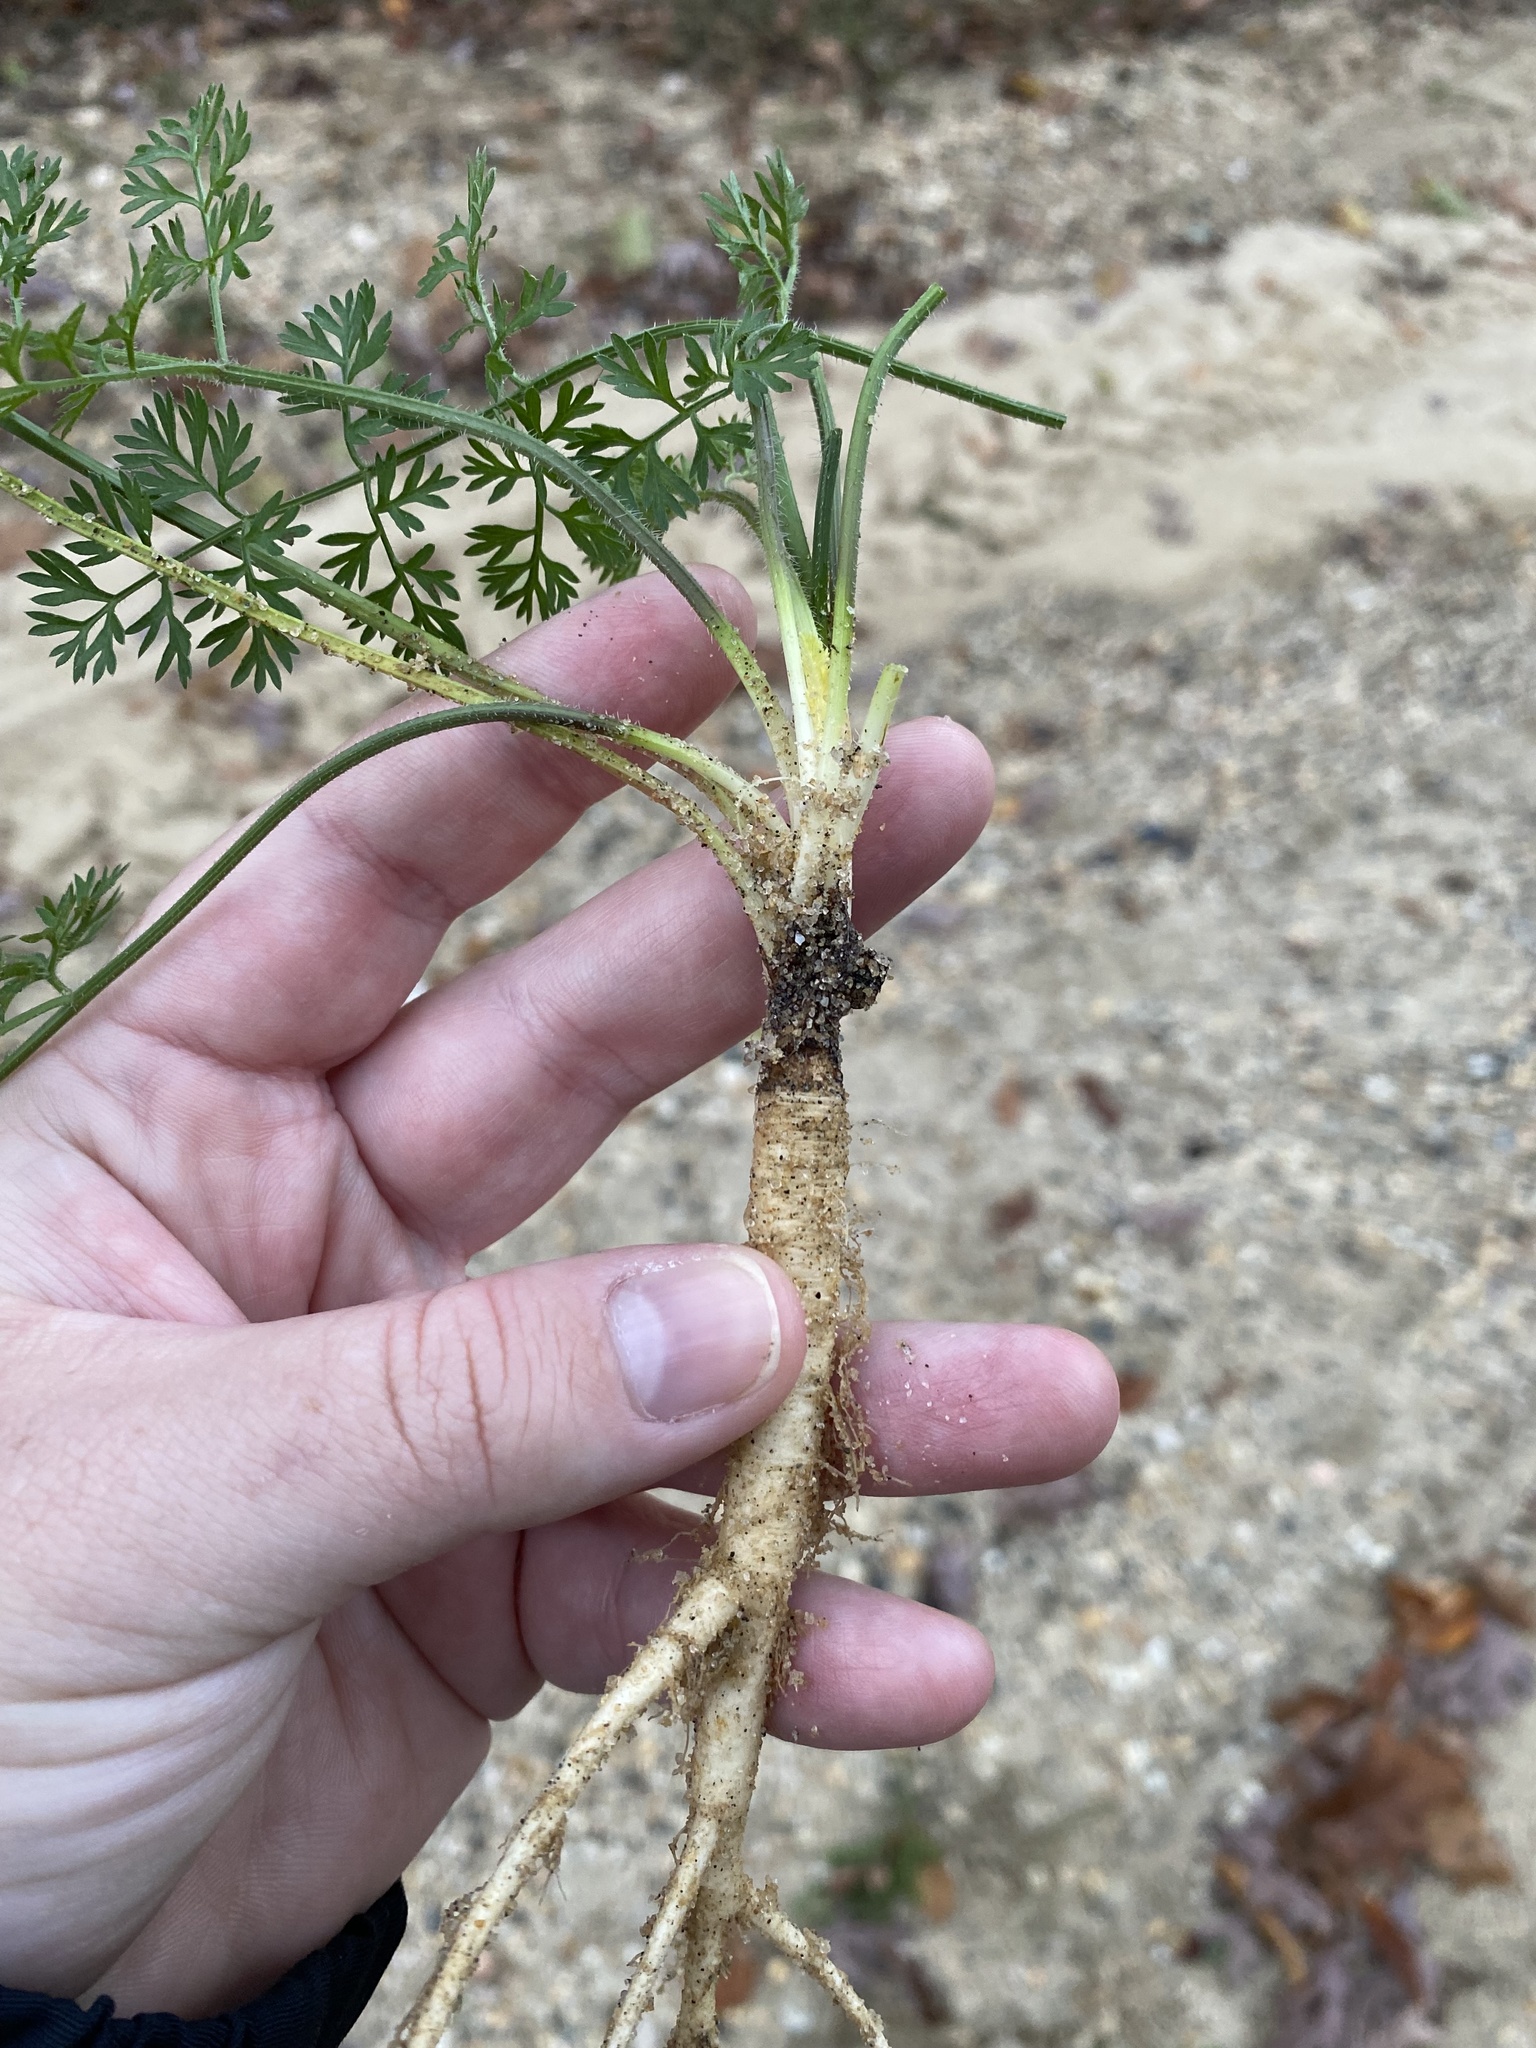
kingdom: Plantae
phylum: Tracheophyta
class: Magnoliopsida
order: Apiales
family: Apiaceae
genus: Daucus
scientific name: Daucus carota
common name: Wild carrot
